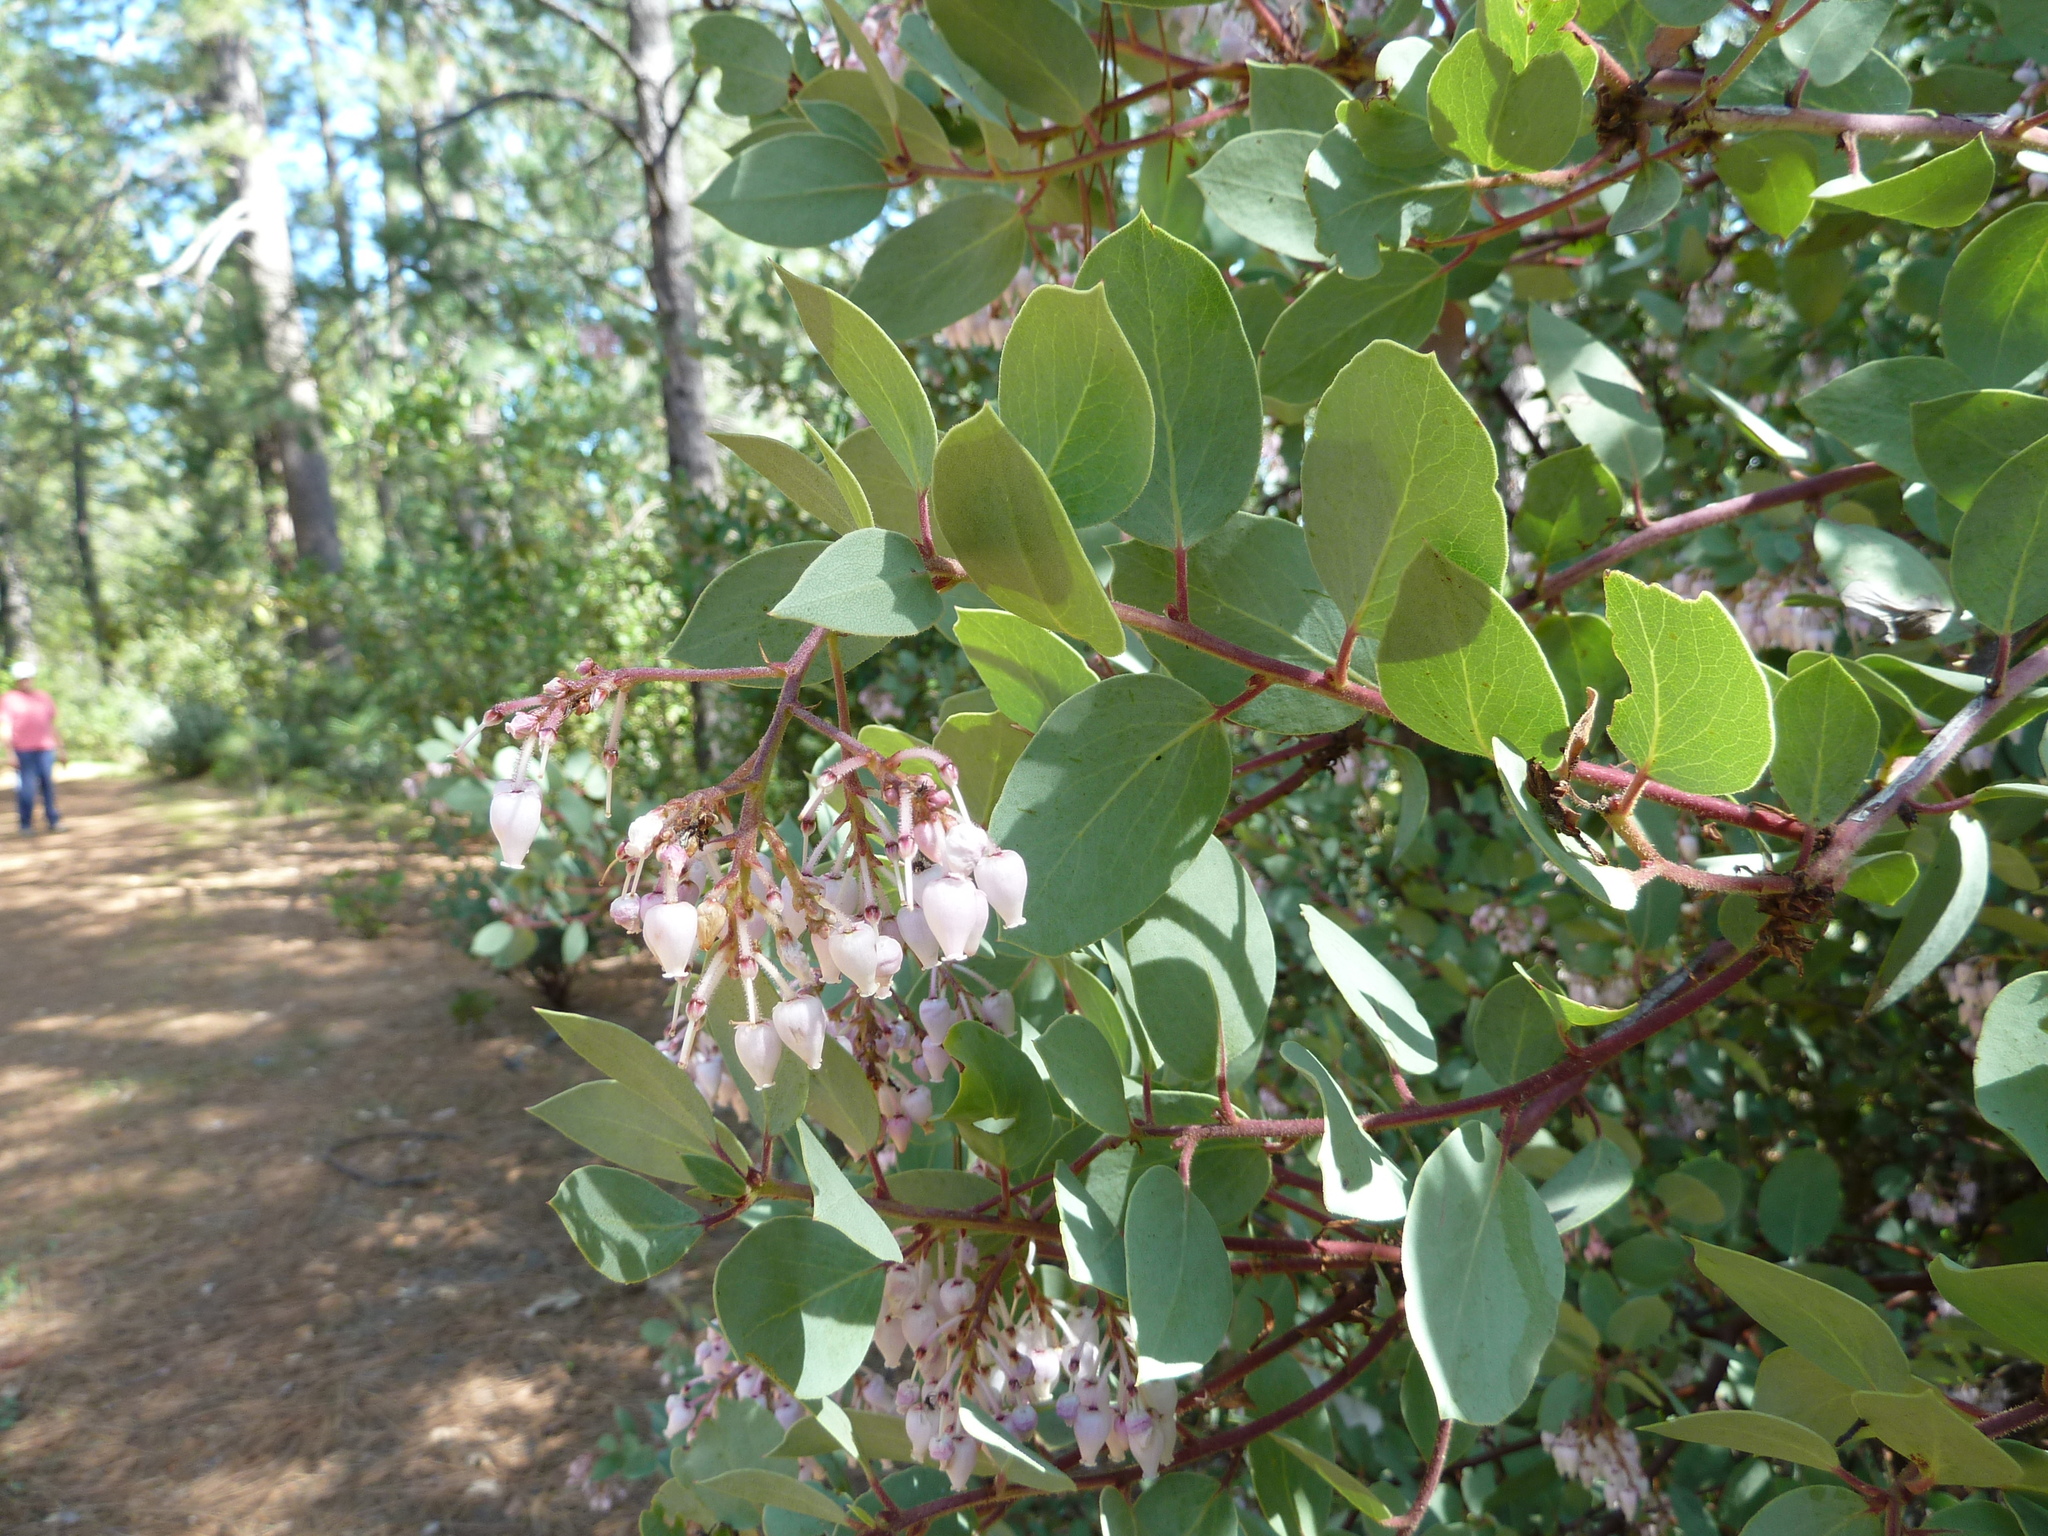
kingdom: Plantae
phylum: Tracheophyta
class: Magnoliopsida
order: Ericales
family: Ericaceae
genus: Arctostaphylos
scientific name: Arctostaphylos viscida
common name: White-leaf manzanita
